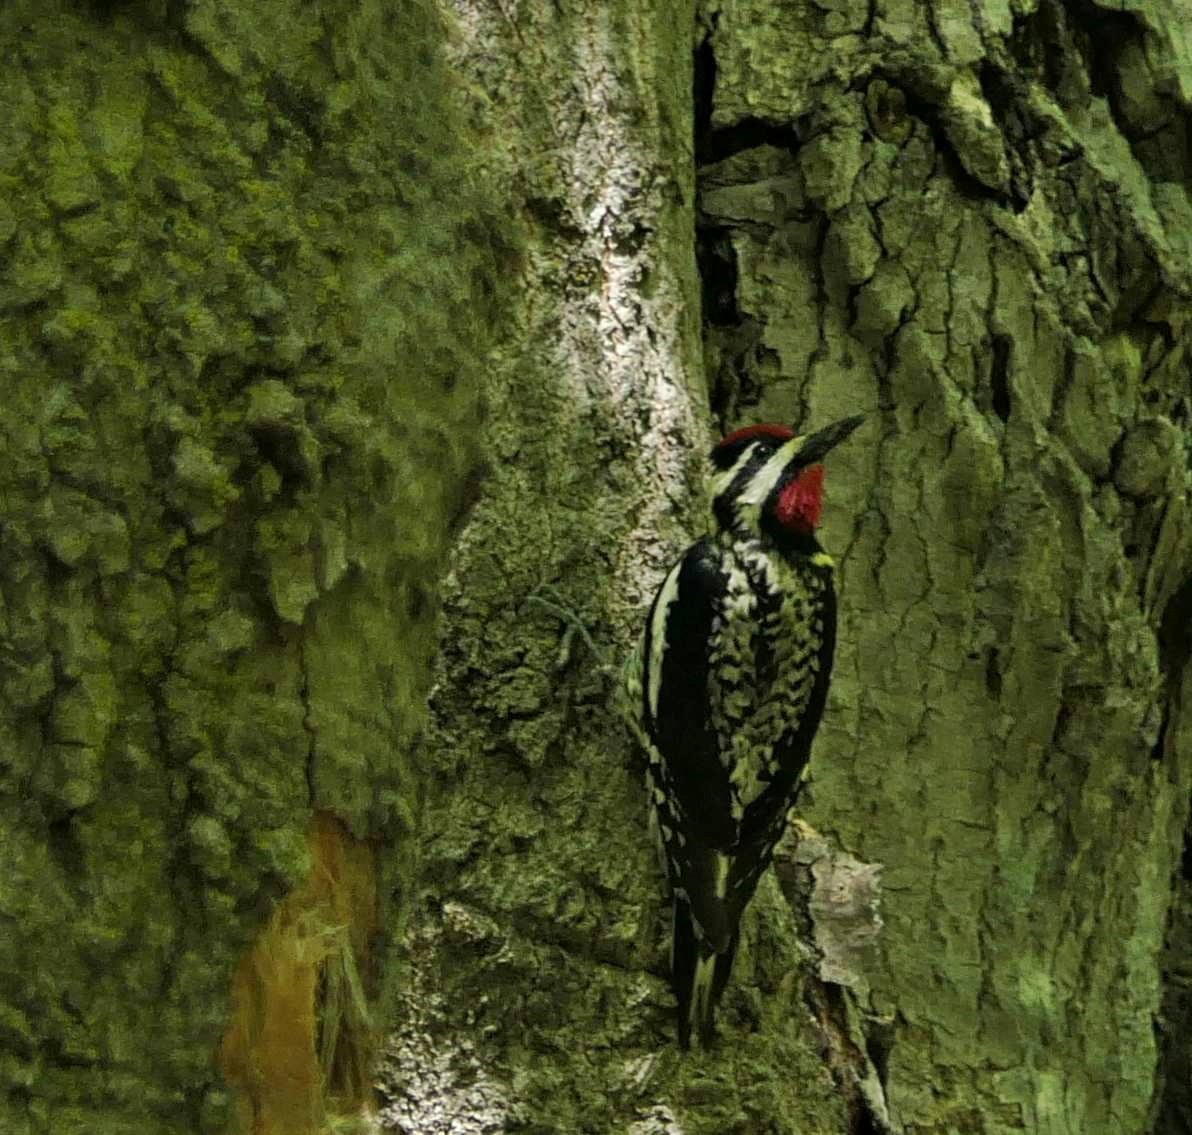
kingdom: Animalia
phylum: Chordata
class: Aves
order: Piciformes
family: Picidae
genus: Sphyrapicus
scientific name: Sphyrapicus varius
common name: Yellow-bellied sapsucker
